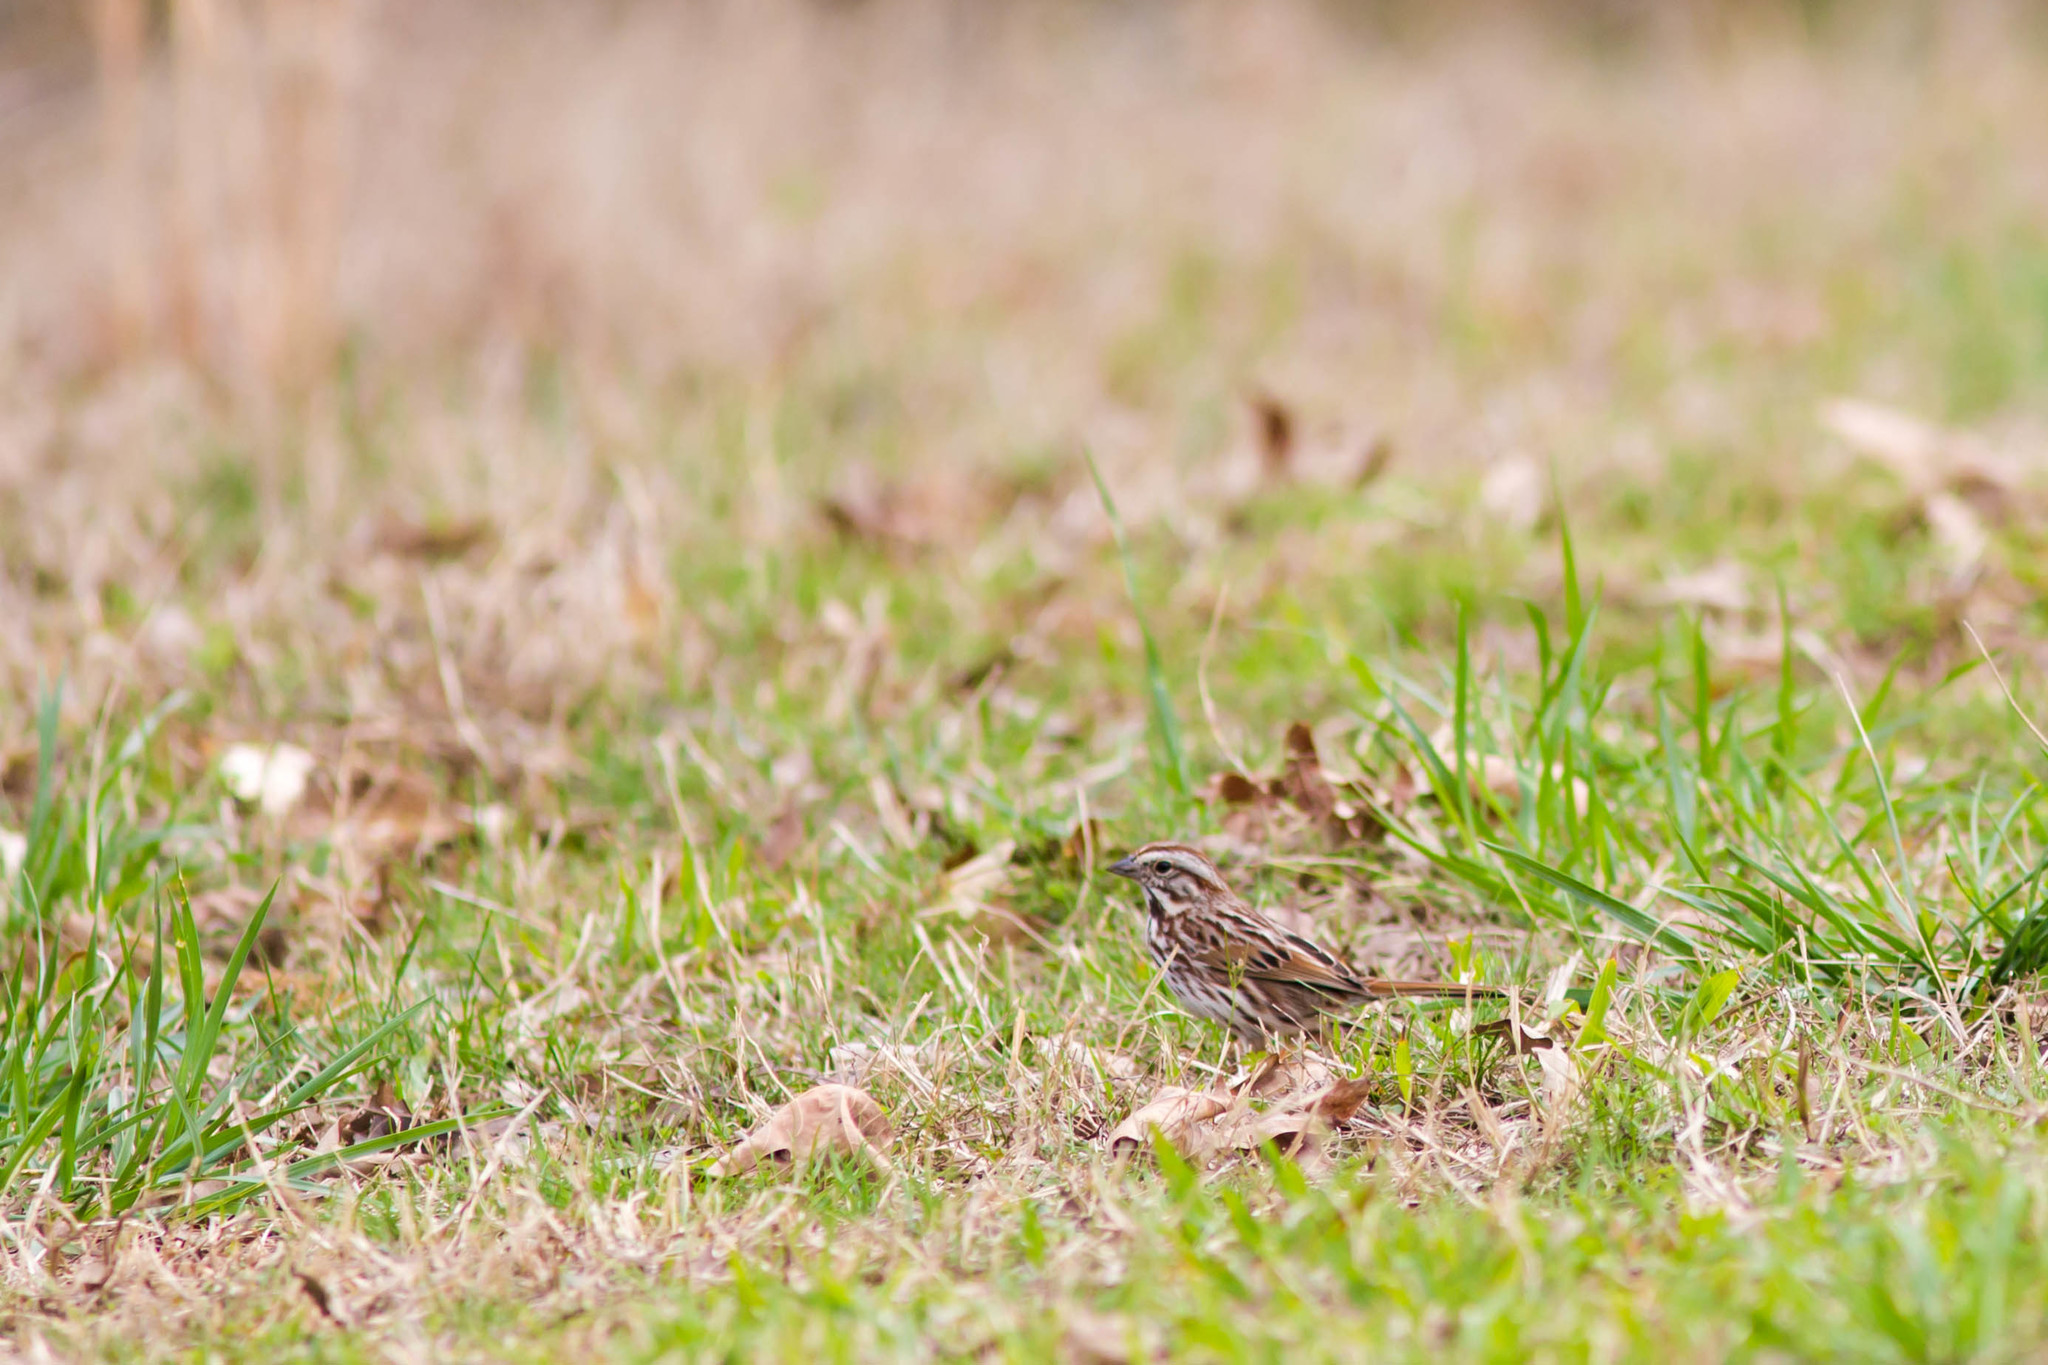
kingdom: Animalia
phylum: Chordata
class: Aves
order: Passeriformes
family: Passerellidae
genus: Melospiza
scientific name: Melospiza melodia
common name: Song sparrow
